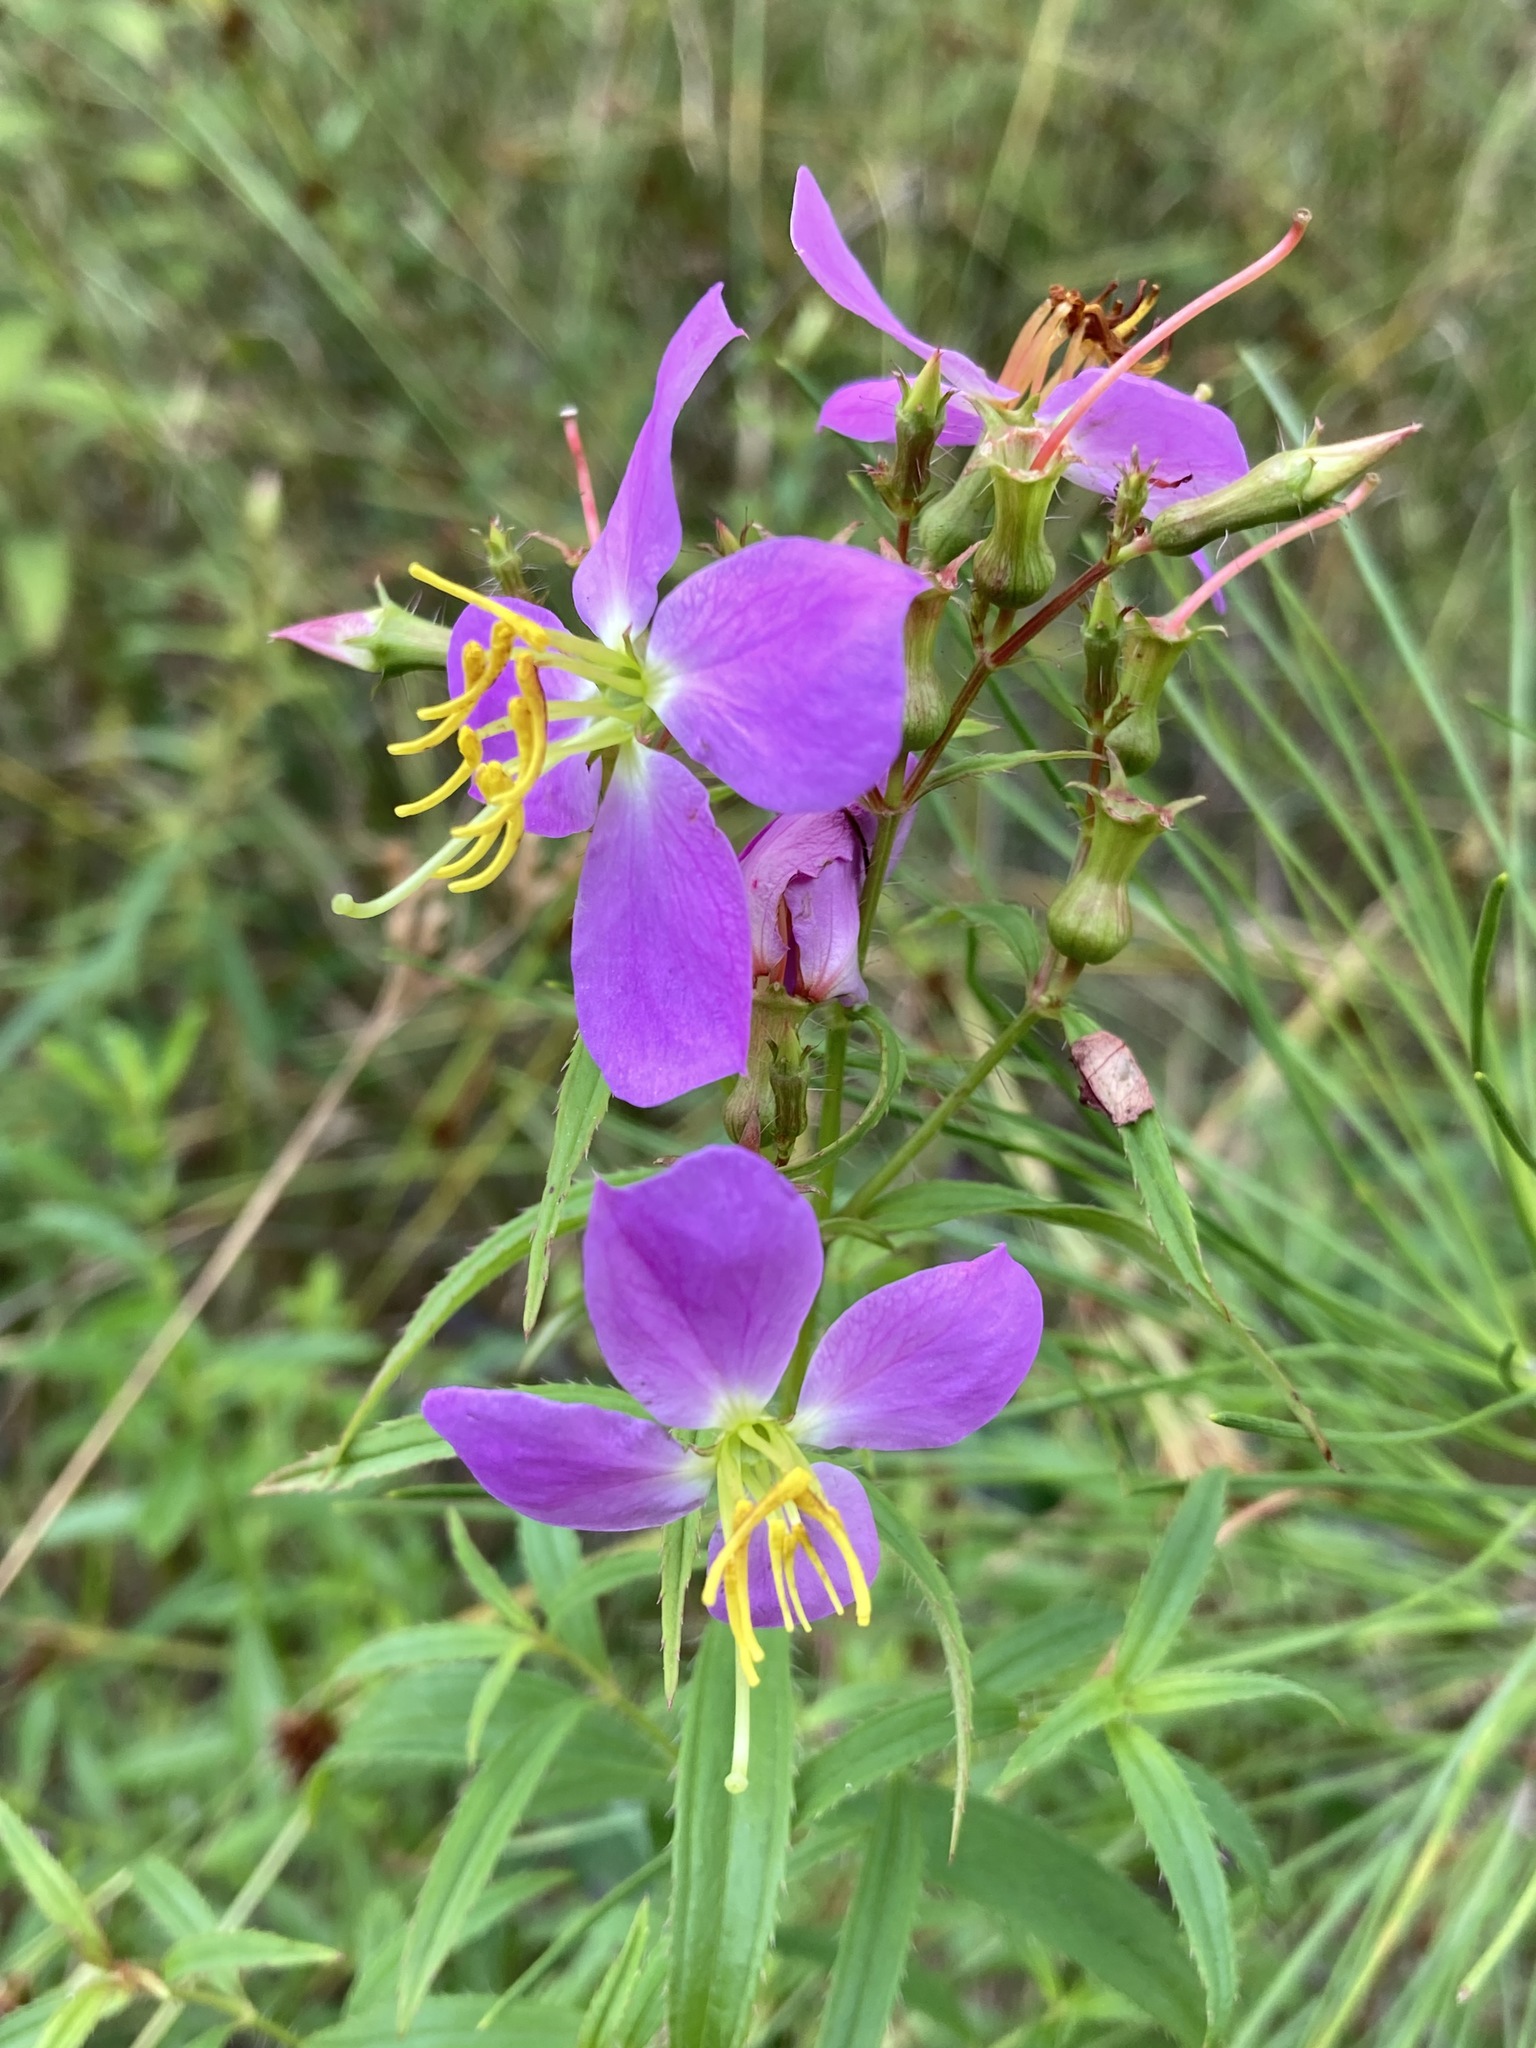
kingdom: Plantae
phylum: Tracheophyta
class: Magnoliopsida
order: Myrtales
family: Melastomataceae
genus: Rhexia
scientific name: Rhexia mariana
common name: Dull meadow-pitcher
